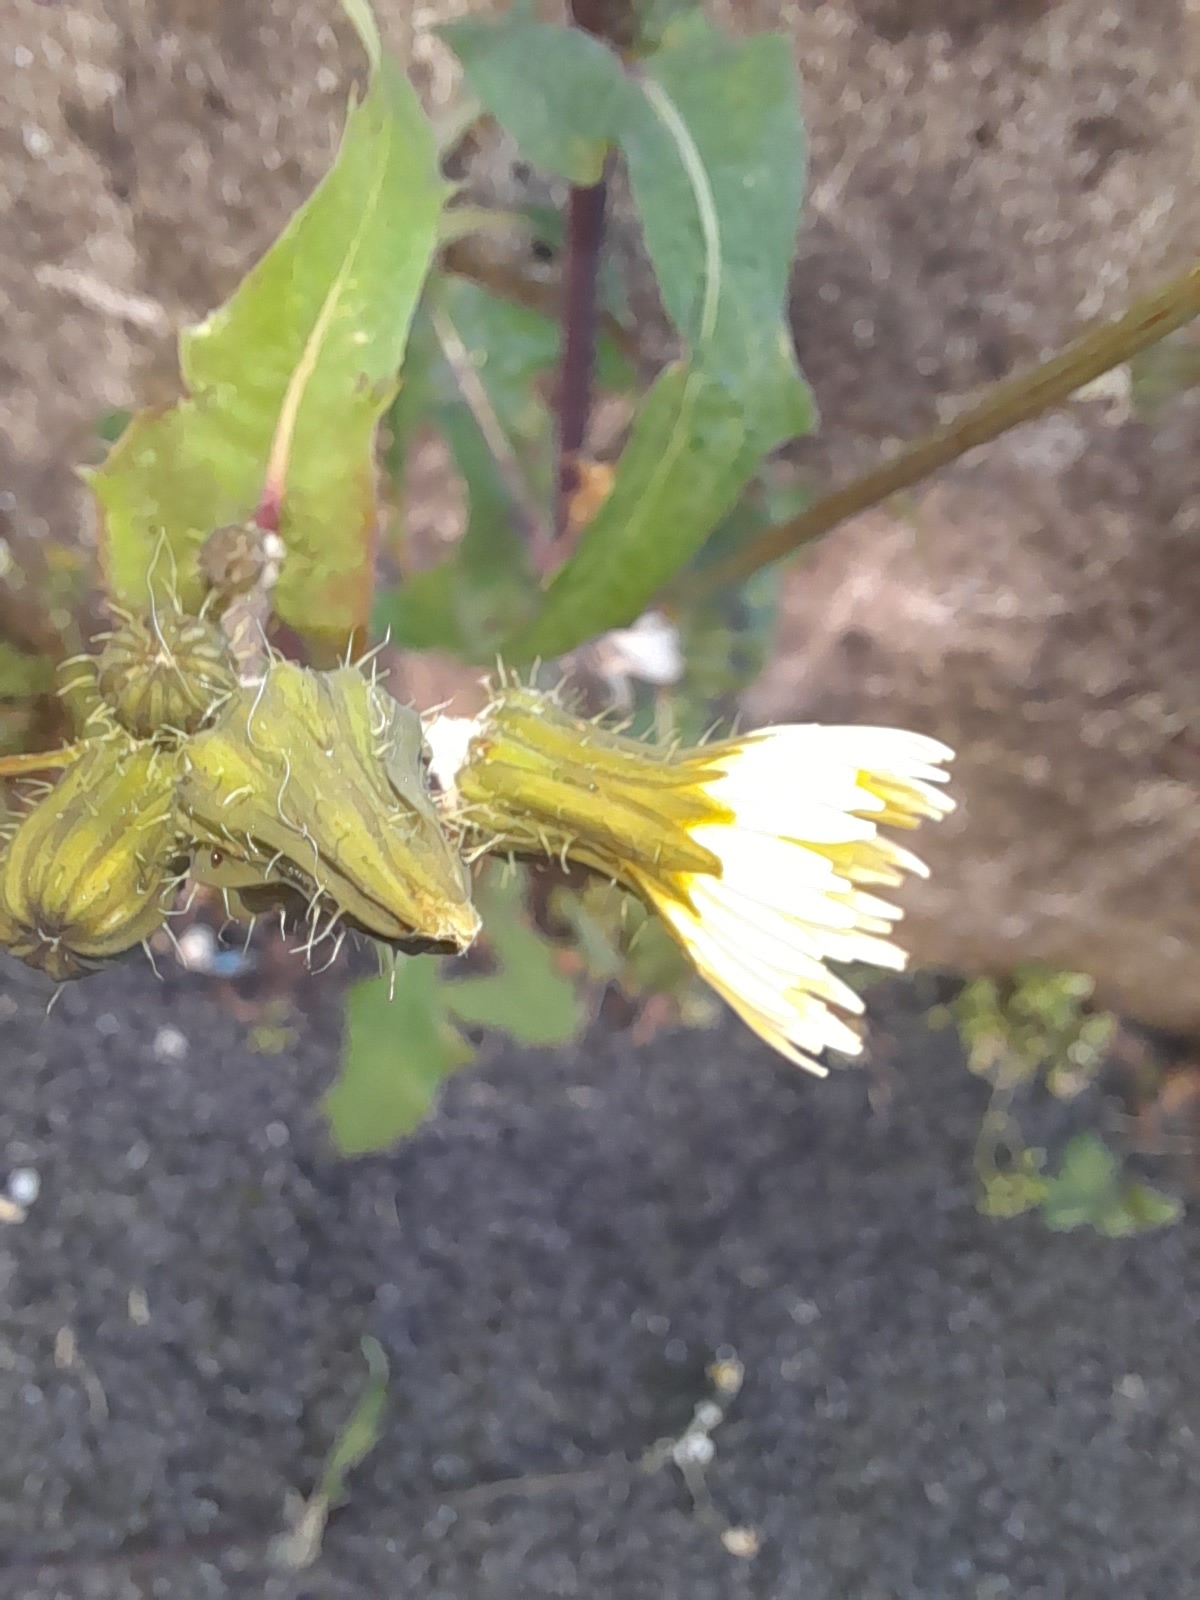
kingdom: Plantae
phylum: Tracheophyta
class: Magnoliopsida
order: Asterales
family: Asteraceae
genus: Sonchus
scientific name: Sonchus oleraceus
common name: Common sowthistle
